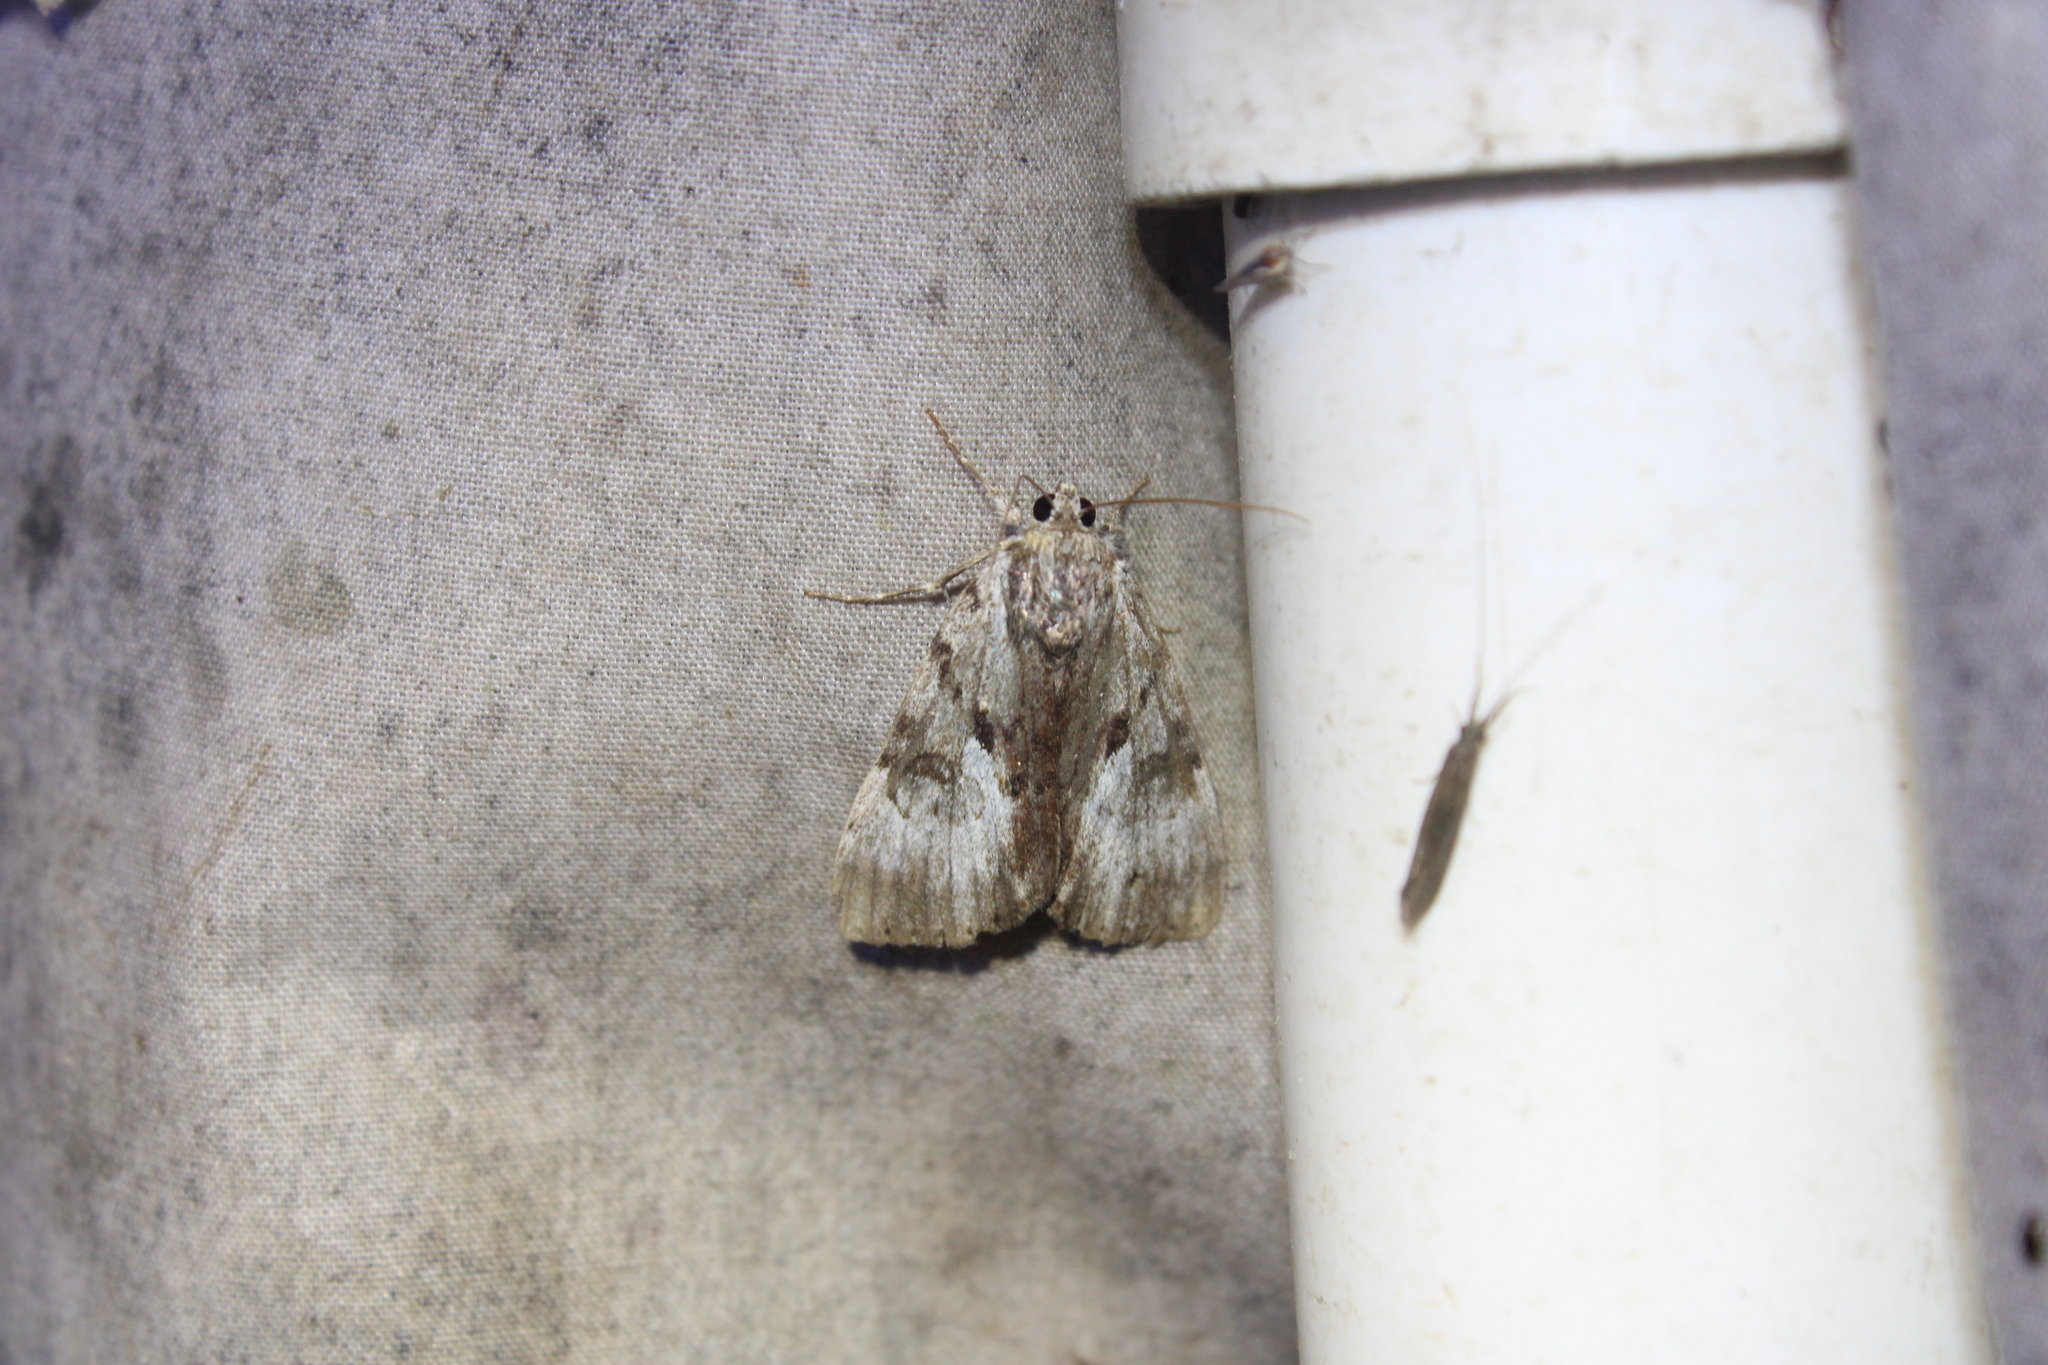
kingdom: Animalia
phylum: Arthropoda
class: Insecta
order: Lepidoptera
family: Erebidae
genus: Catocala
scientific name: Catocala andromedae
